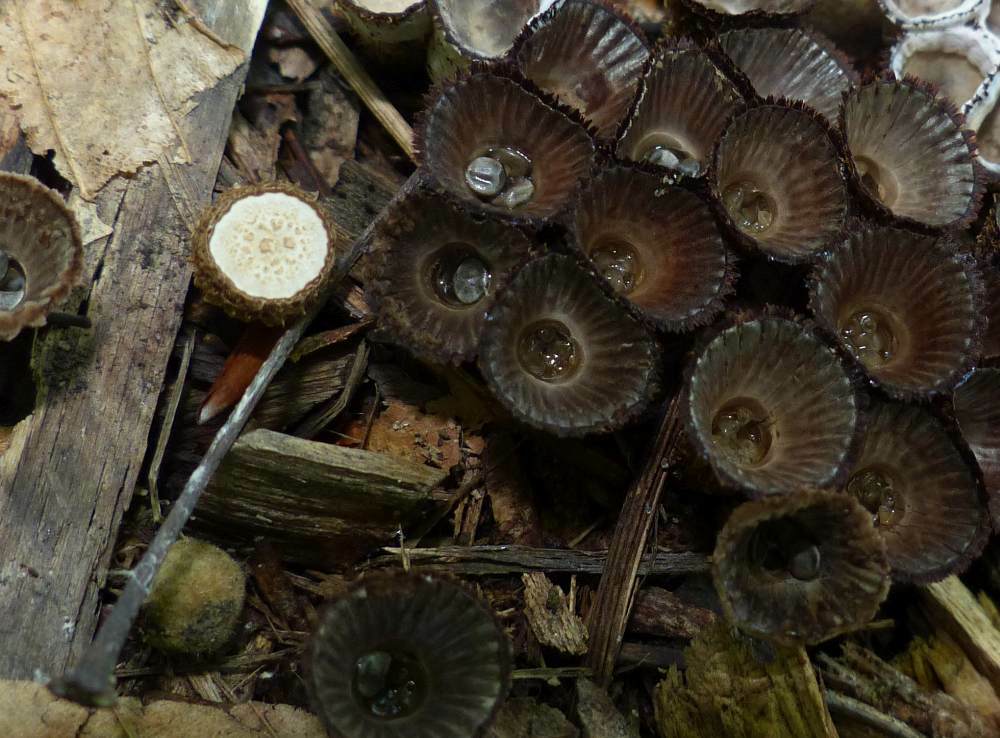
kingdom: Fungi
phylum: Basidiomycota
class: Agaricomycetes
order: Agaricales
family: Agaricaceae
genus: Cyathus
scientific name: Cyathus striatus
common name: Fluted bird's nest
